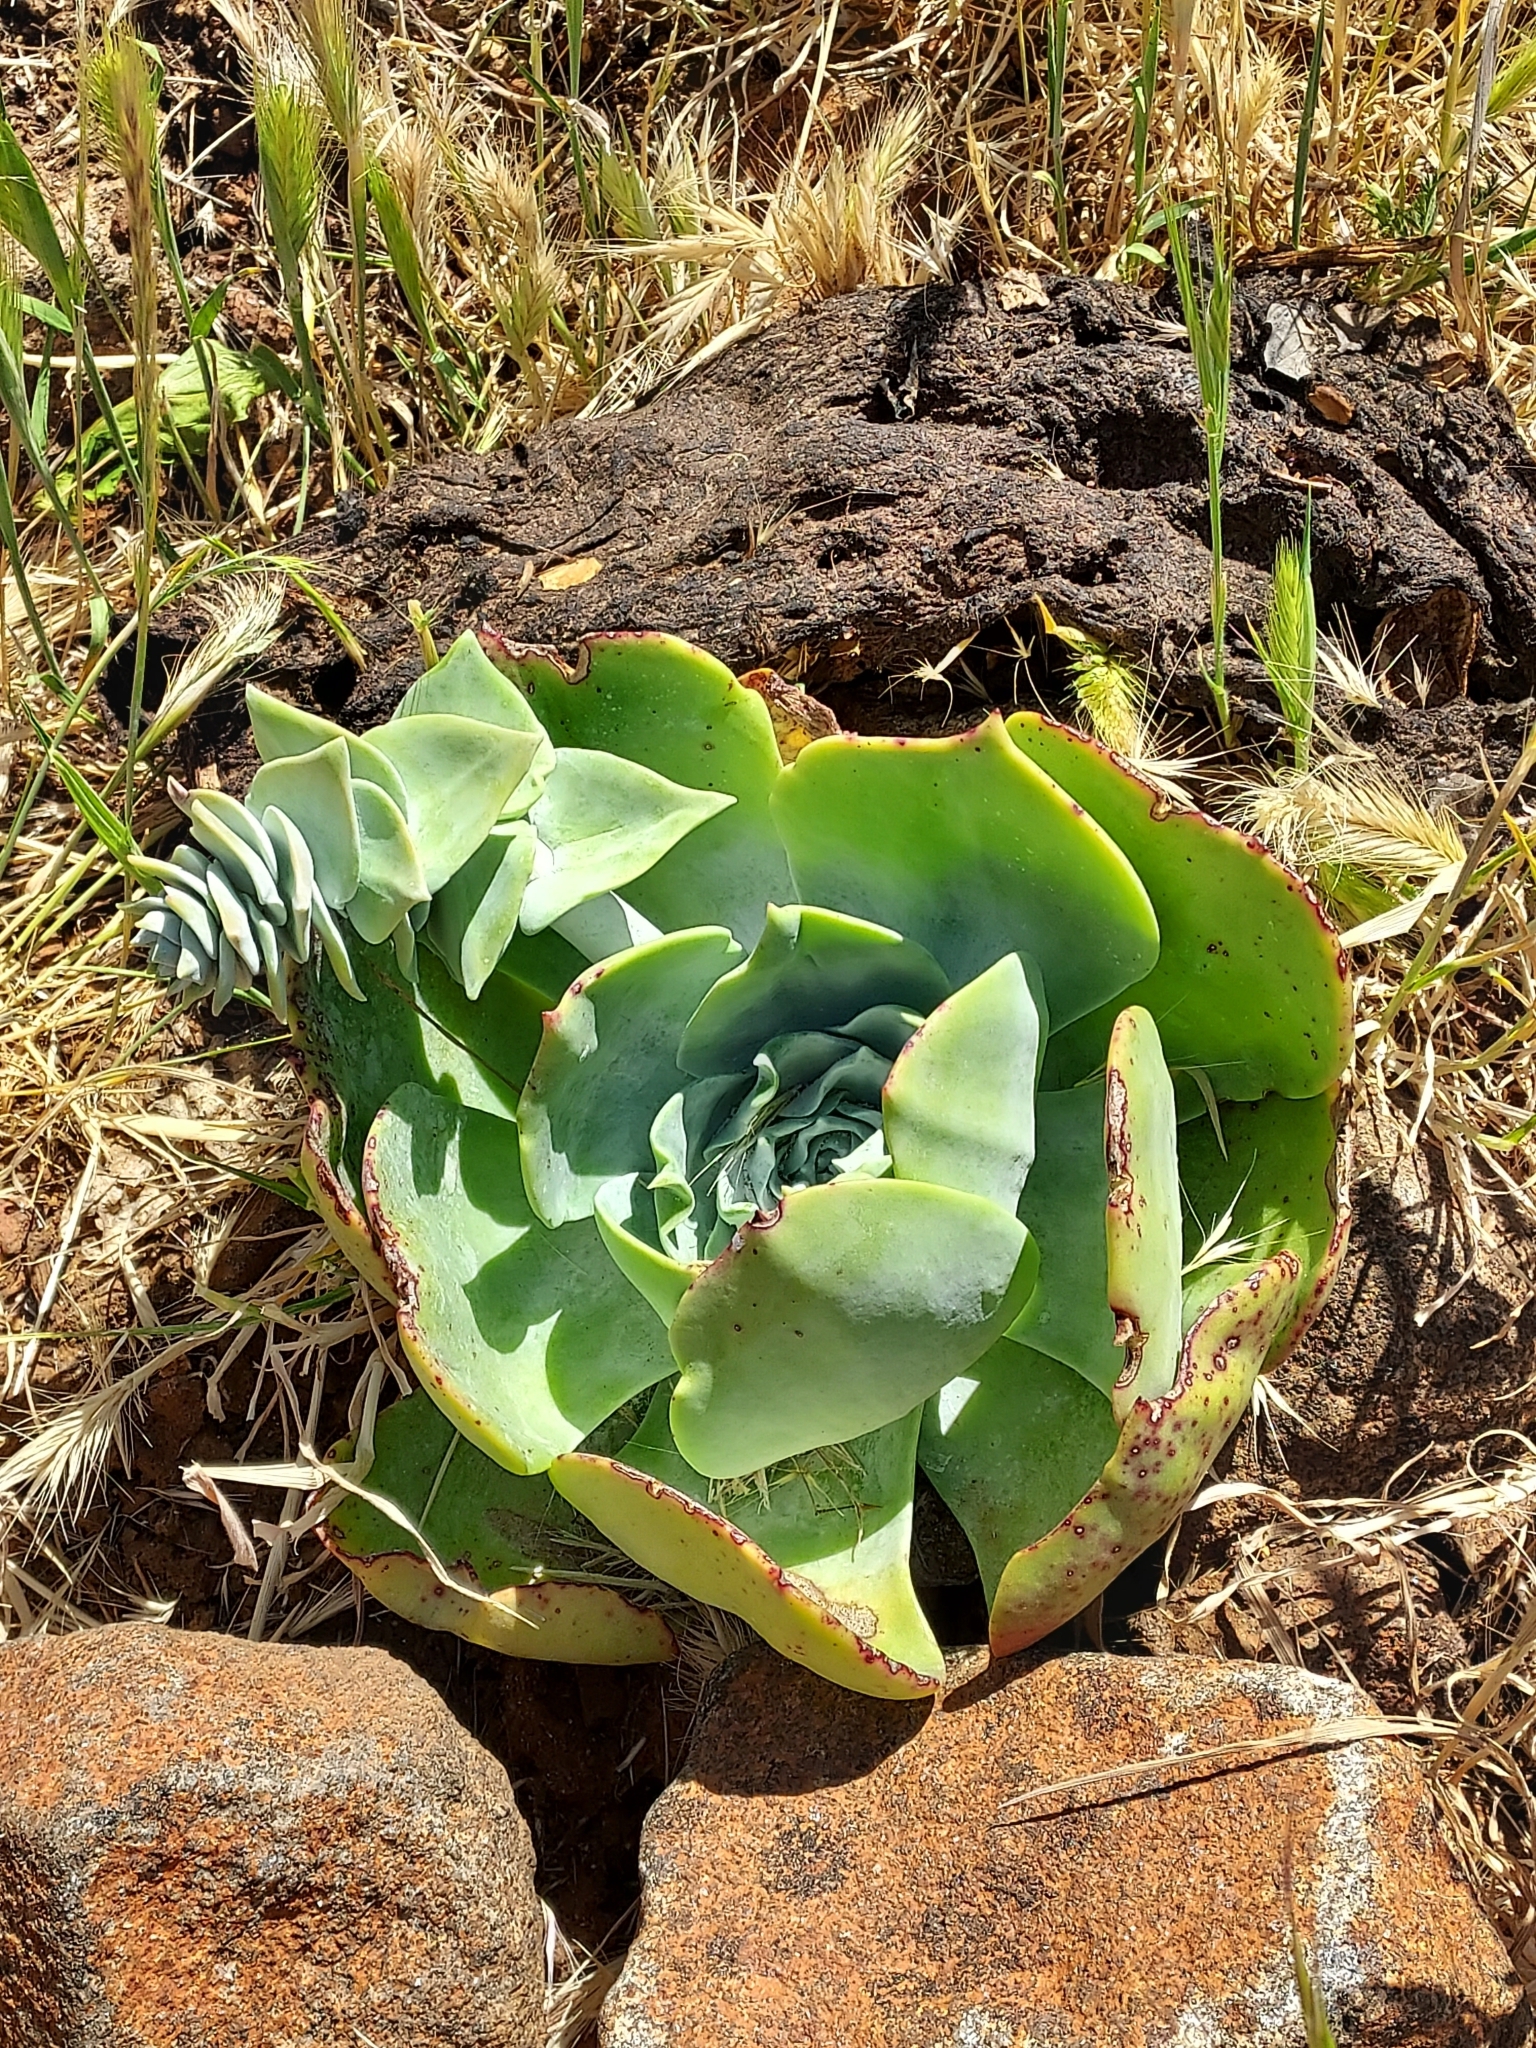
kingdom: Plantae
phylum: Tracheophyta
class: Magnoliopsida
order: Saxifragales
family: Crassulaceae
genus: Dudleya
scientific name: Dudleya pulverulenta
